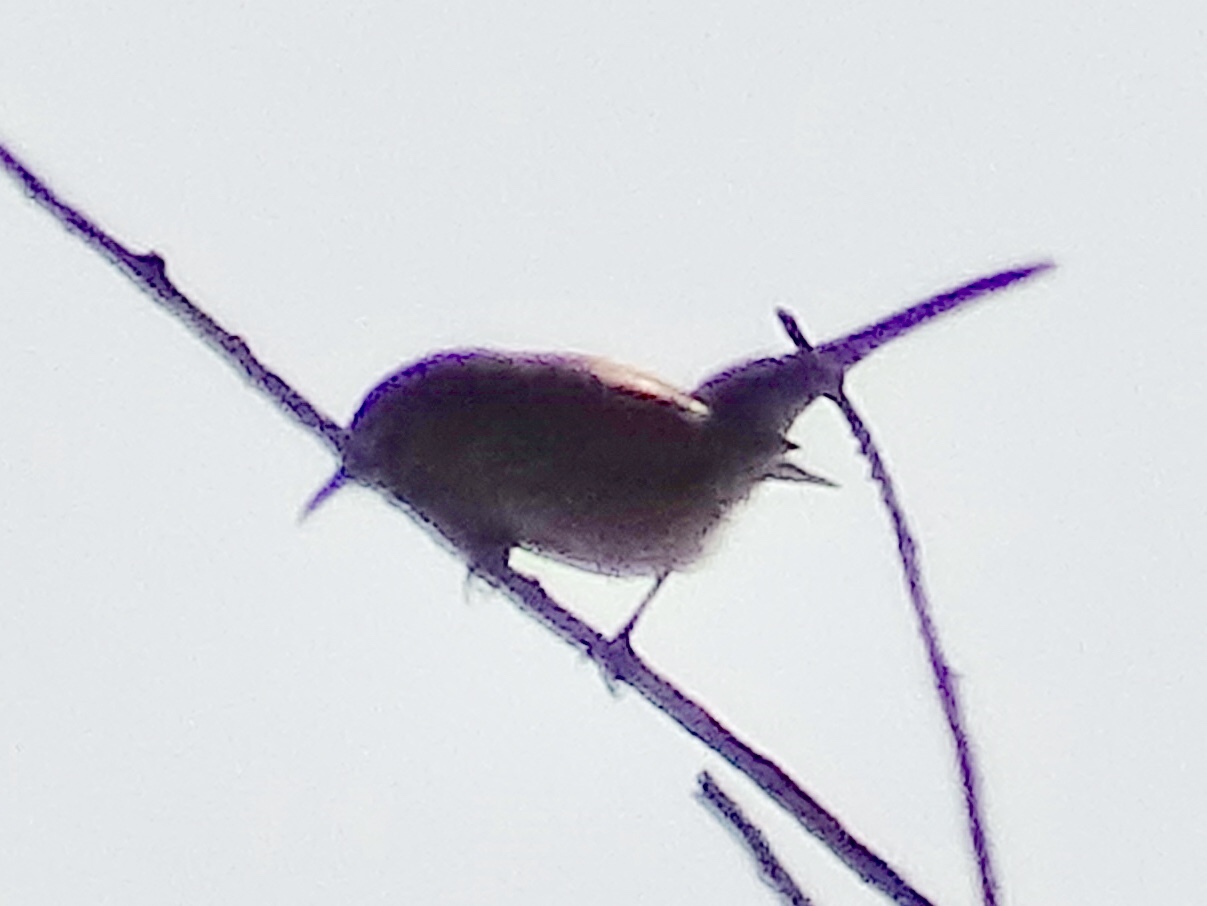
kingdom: Animalia
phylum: Chordata
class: Aves
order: Passeriformes
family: Troglodytidae
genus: Thryomanes
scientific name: Thryomanes bewickii
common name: Bewick's wren
